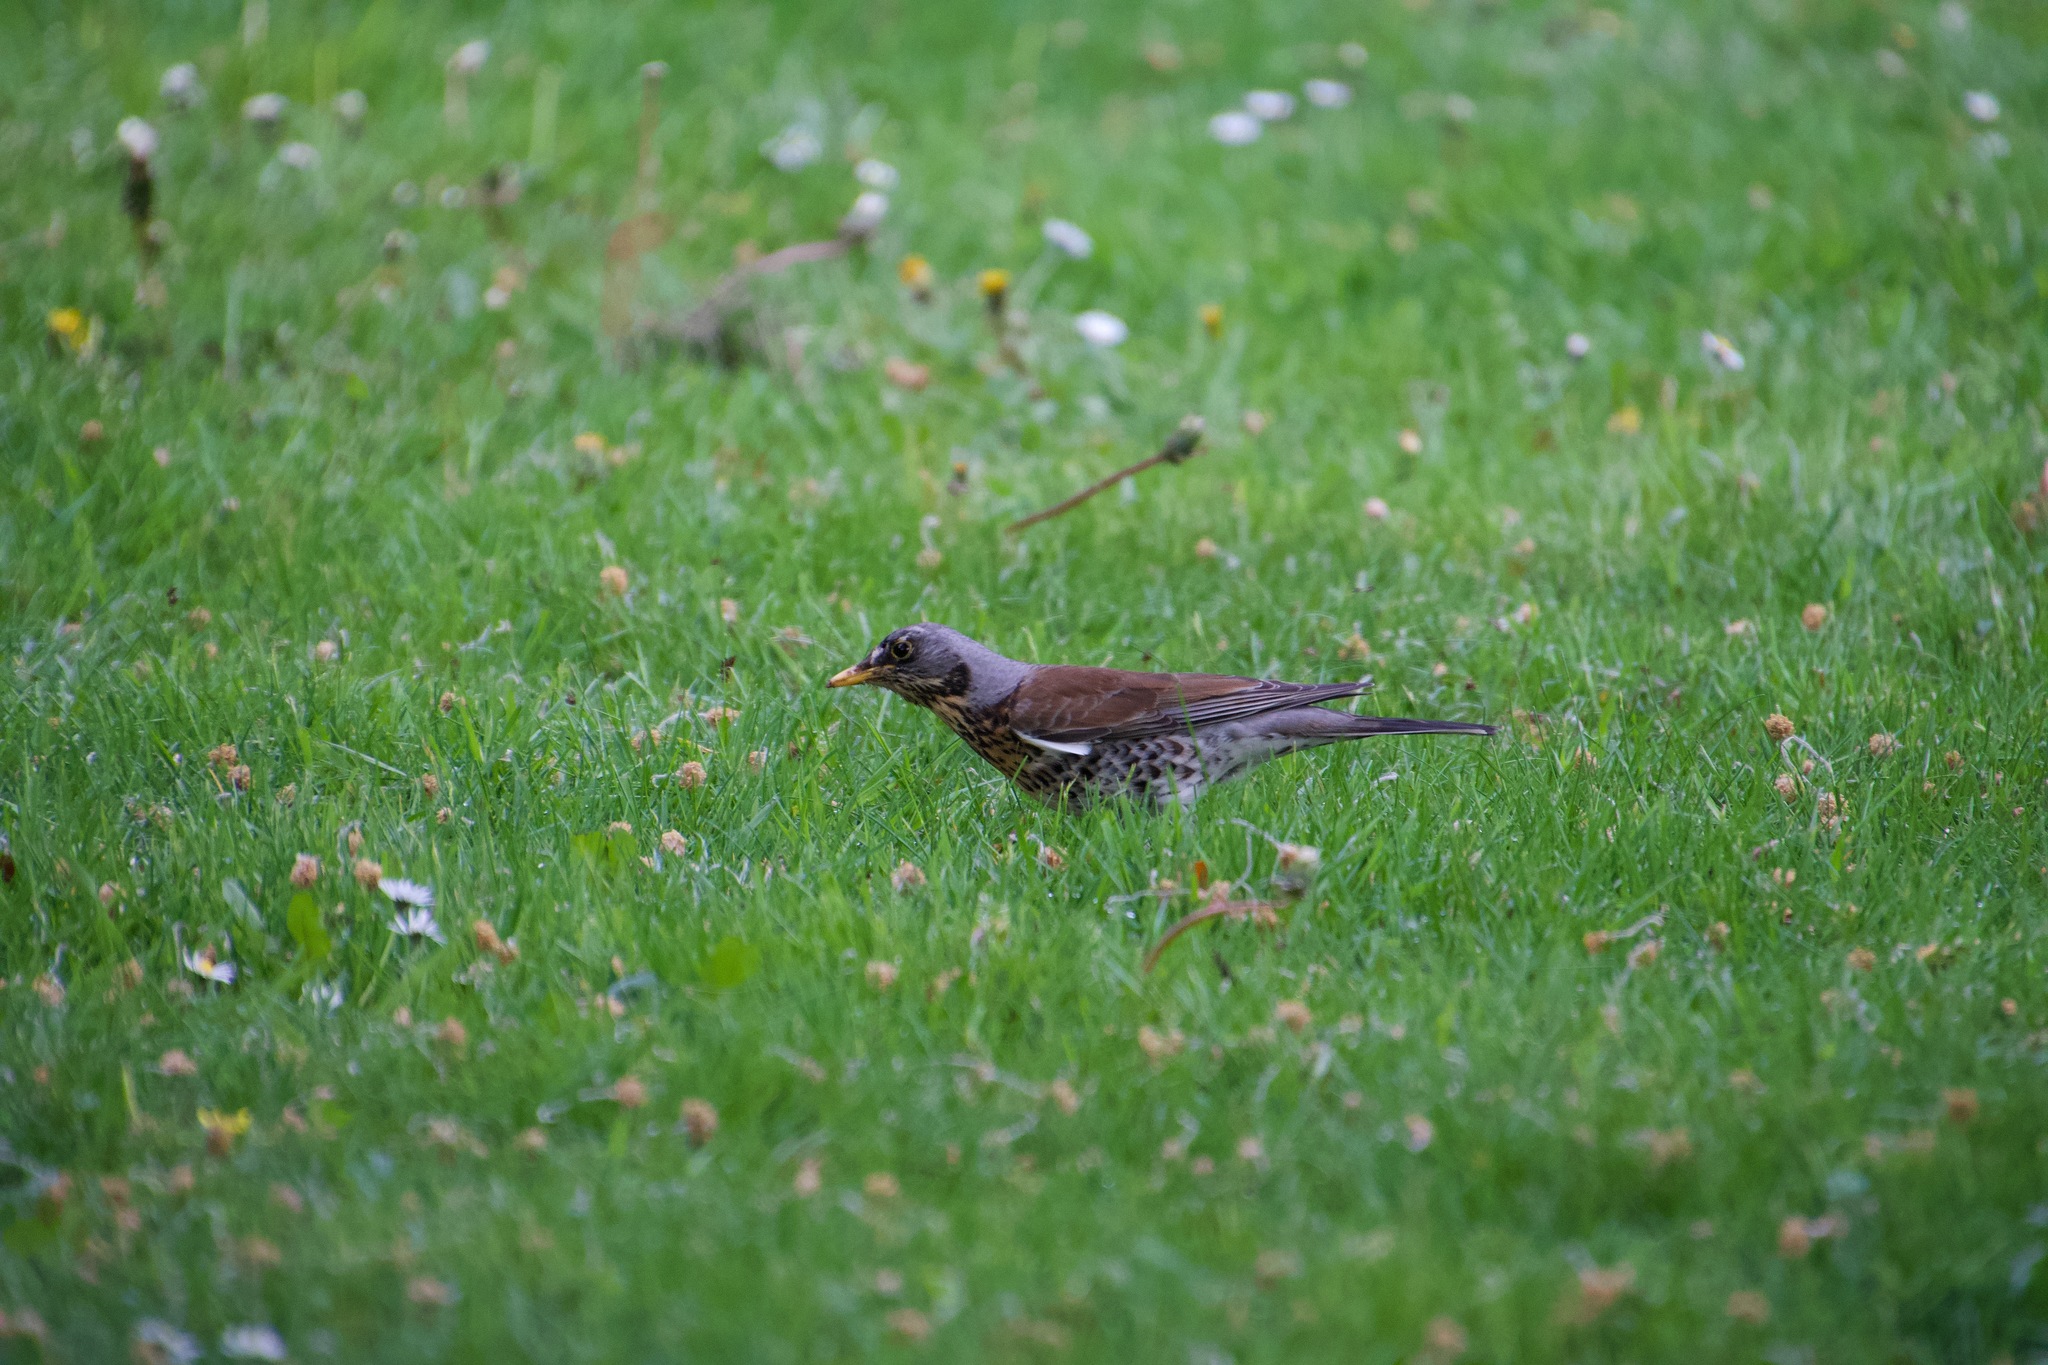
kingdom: Animalia
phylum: Chordata
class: Aves
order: Passeriformes
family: Turdidae
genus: Turdus
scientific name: Turdus pilaris
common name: Fieldfare
